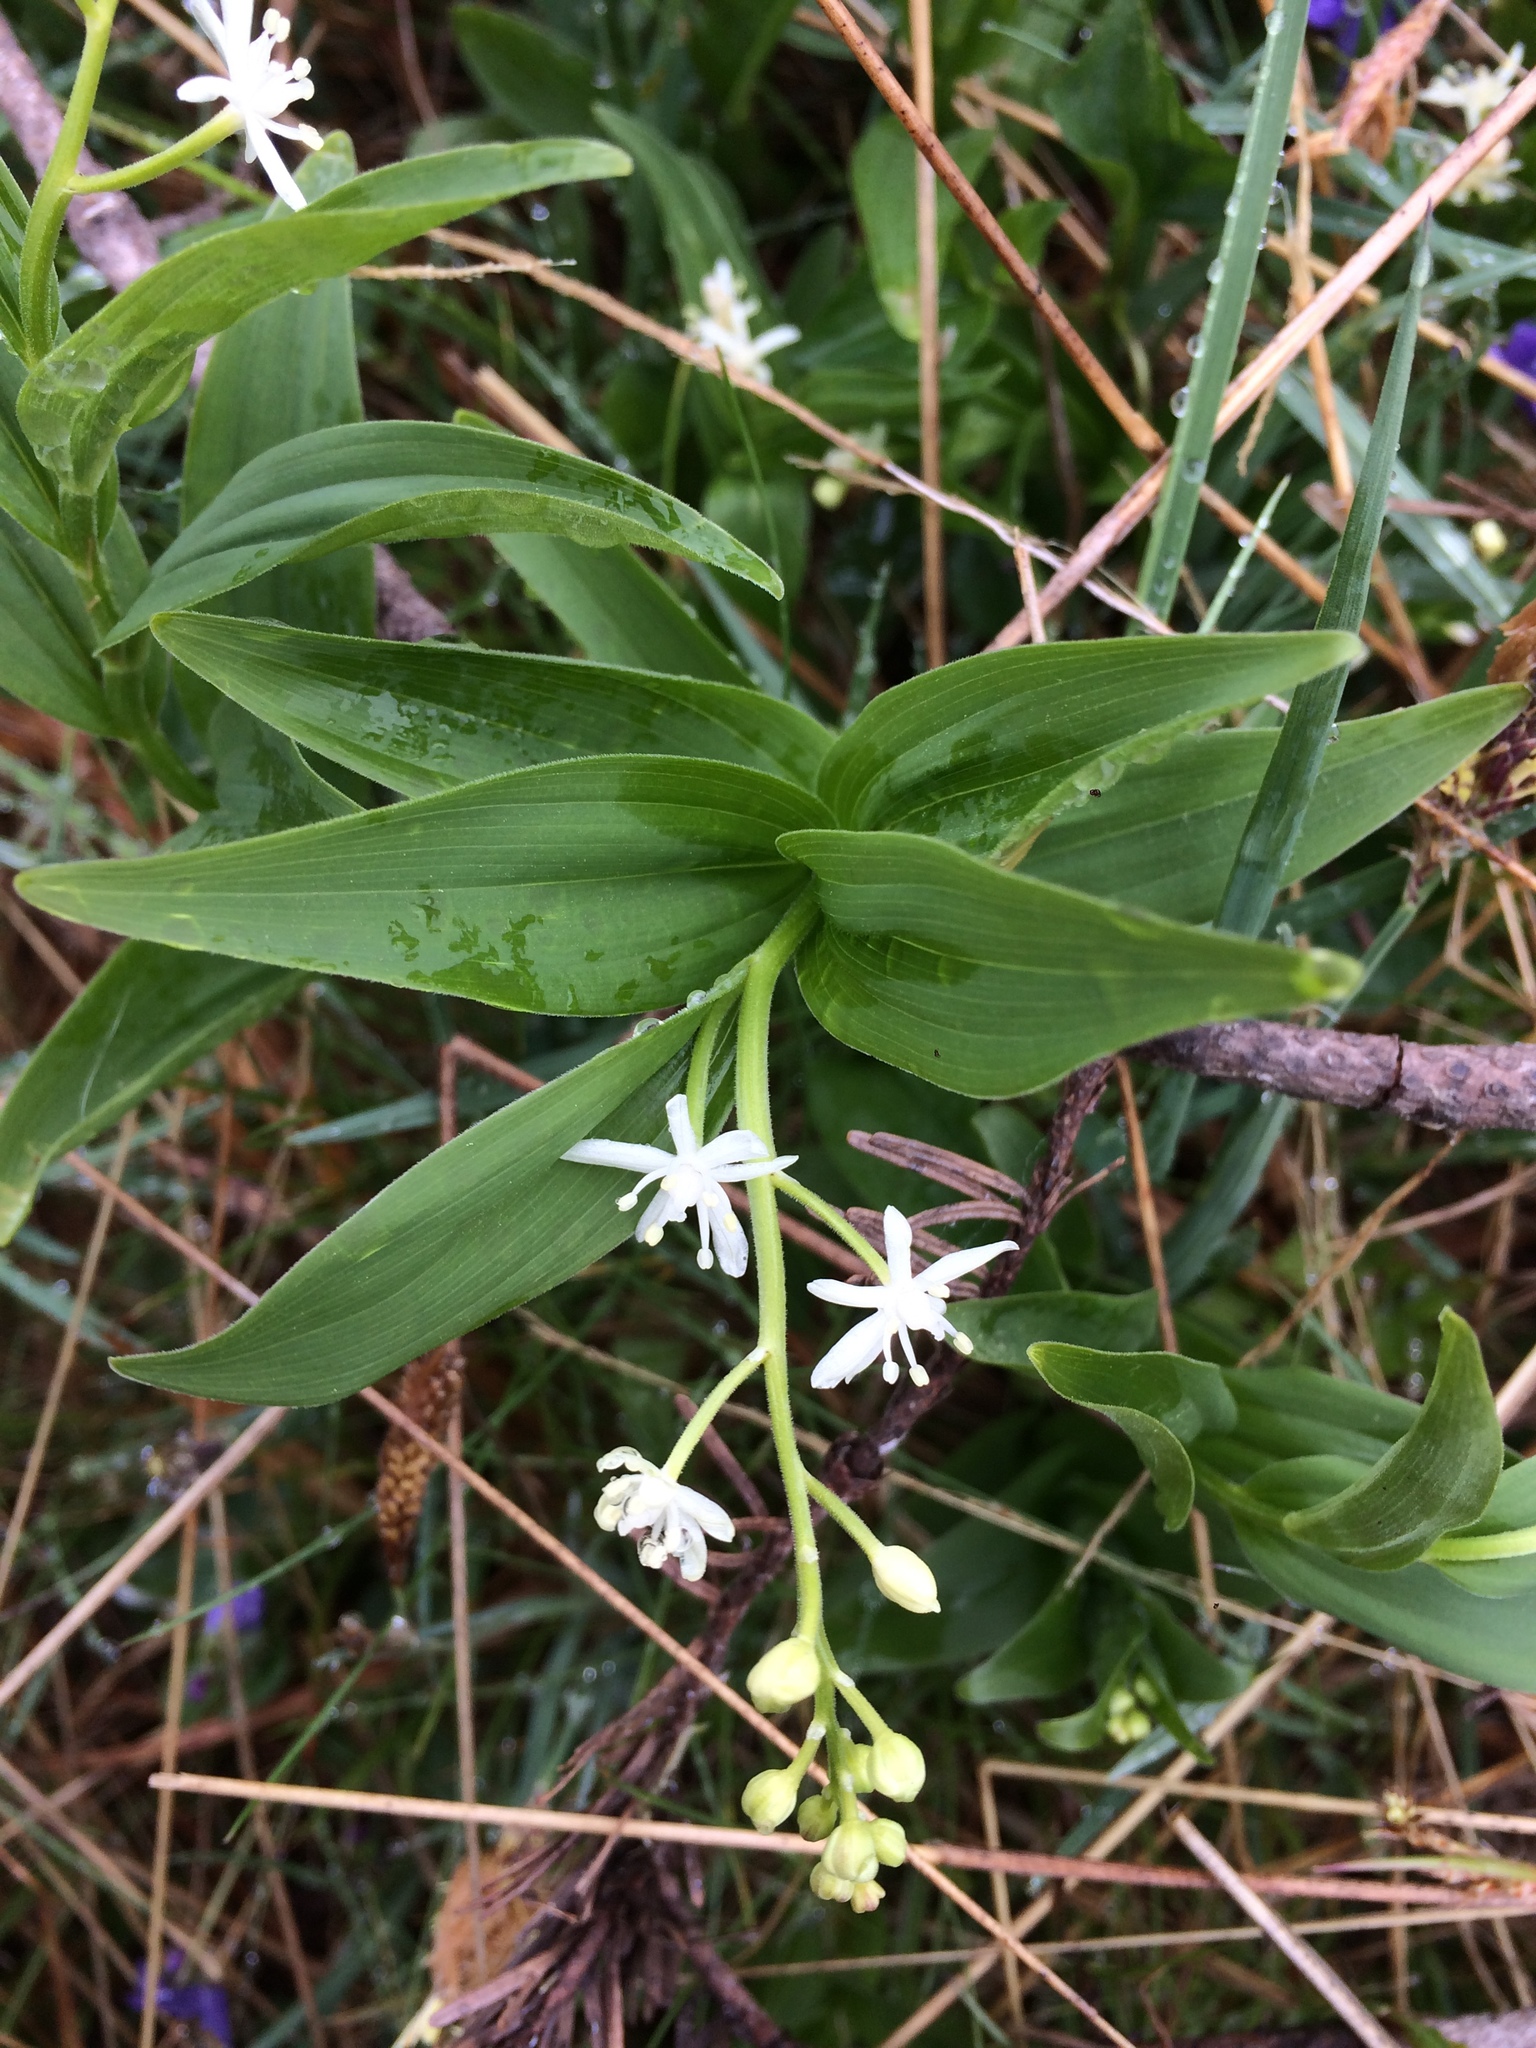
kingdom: Plantae
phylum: Tracheophyta
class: Liliopsida
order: Asparagales
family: Asparagaceae
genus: Maianthemum
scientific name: Maianthemum stellatum
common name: Little false solomon's seal
